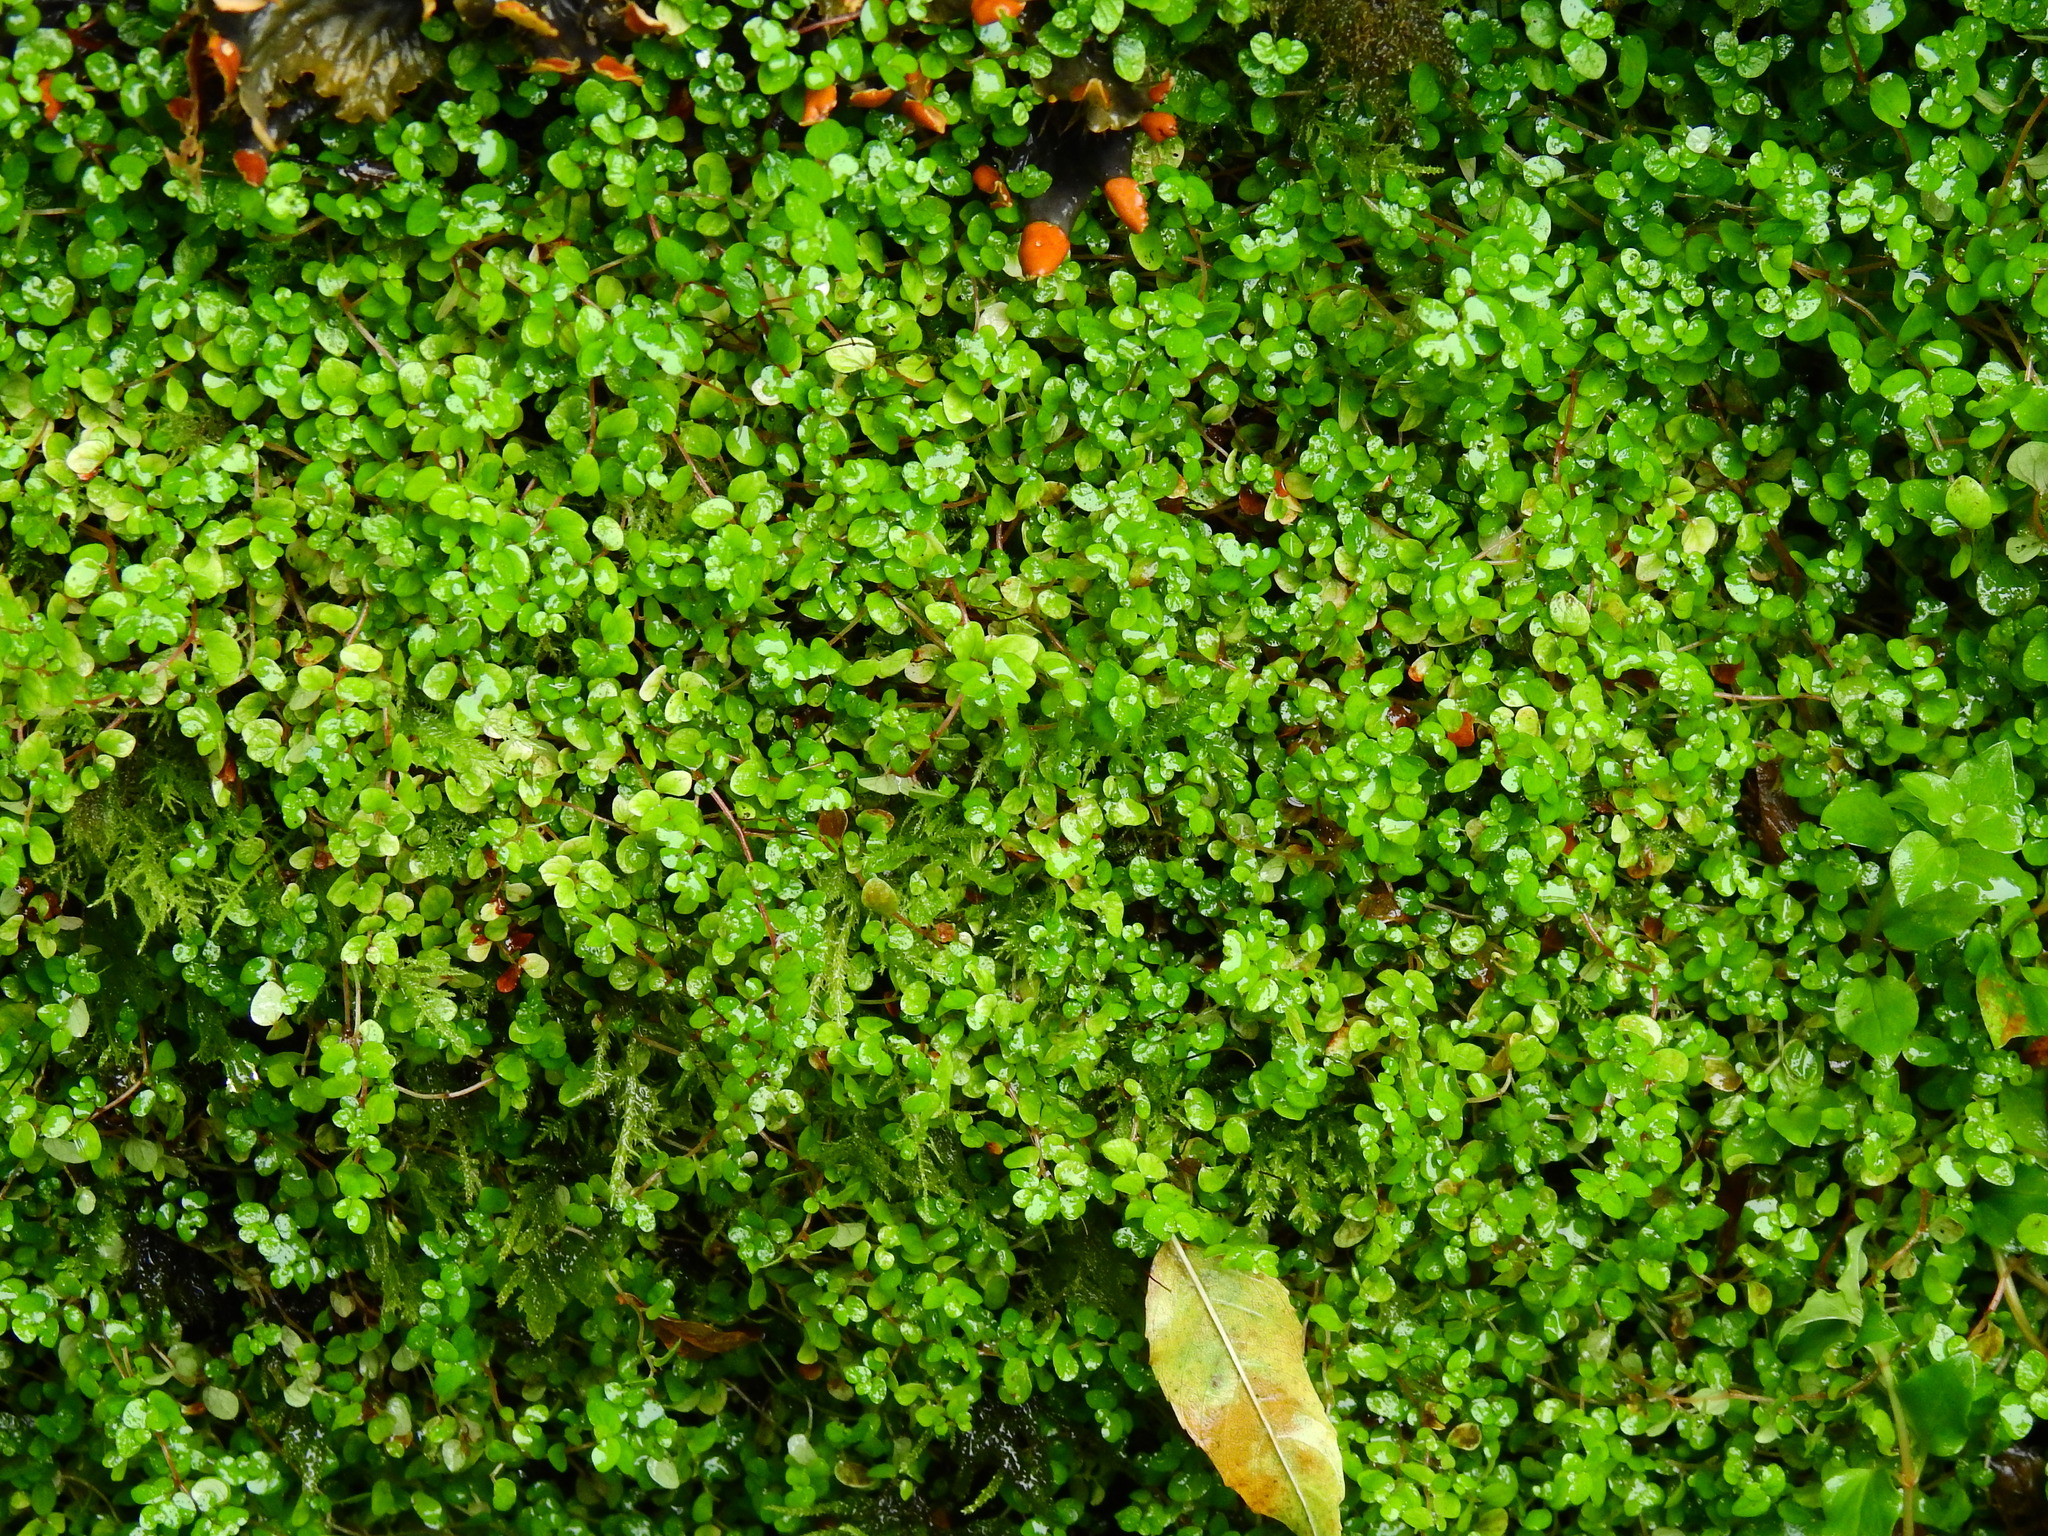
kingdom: Plantae
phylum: Tracheophyta
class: Magnoliopsida
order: Rosales
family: Urticaceae
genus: Soleirolia
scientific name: Soleirolia soleirolii
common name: Mind-your-own-business
